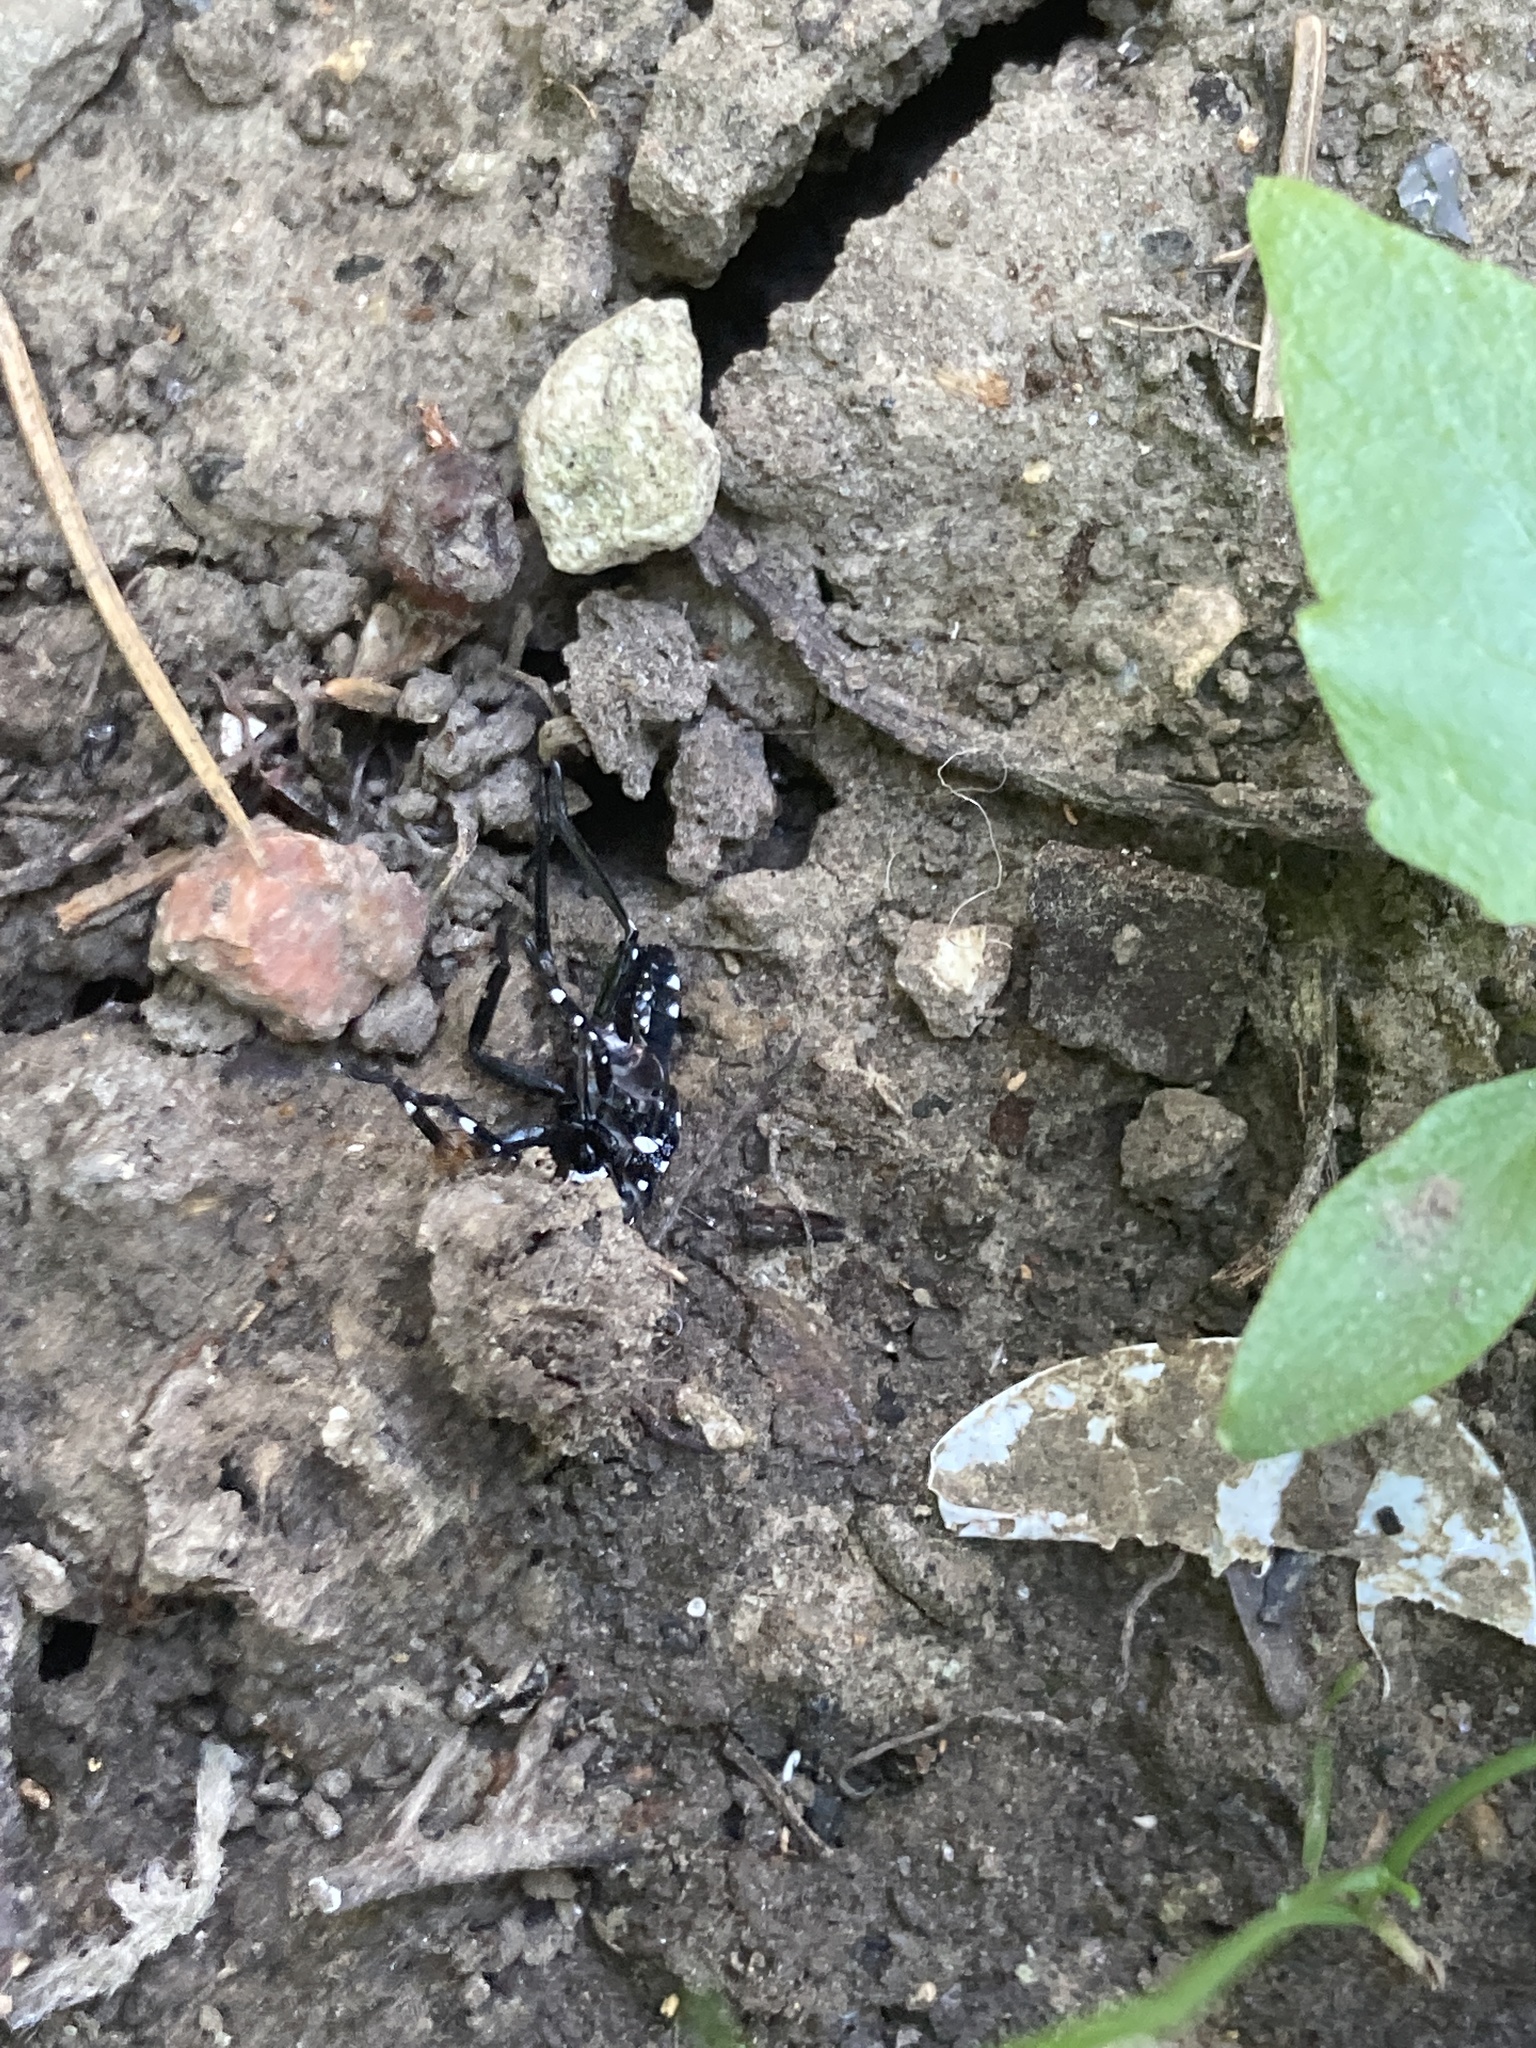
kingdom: Animalia
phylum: Arthropoda
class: Insecta
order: Hemiptera
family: Fulgoridae
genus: Lycorma
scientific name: Lycorma delicatula
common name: Spotted lanternfly
